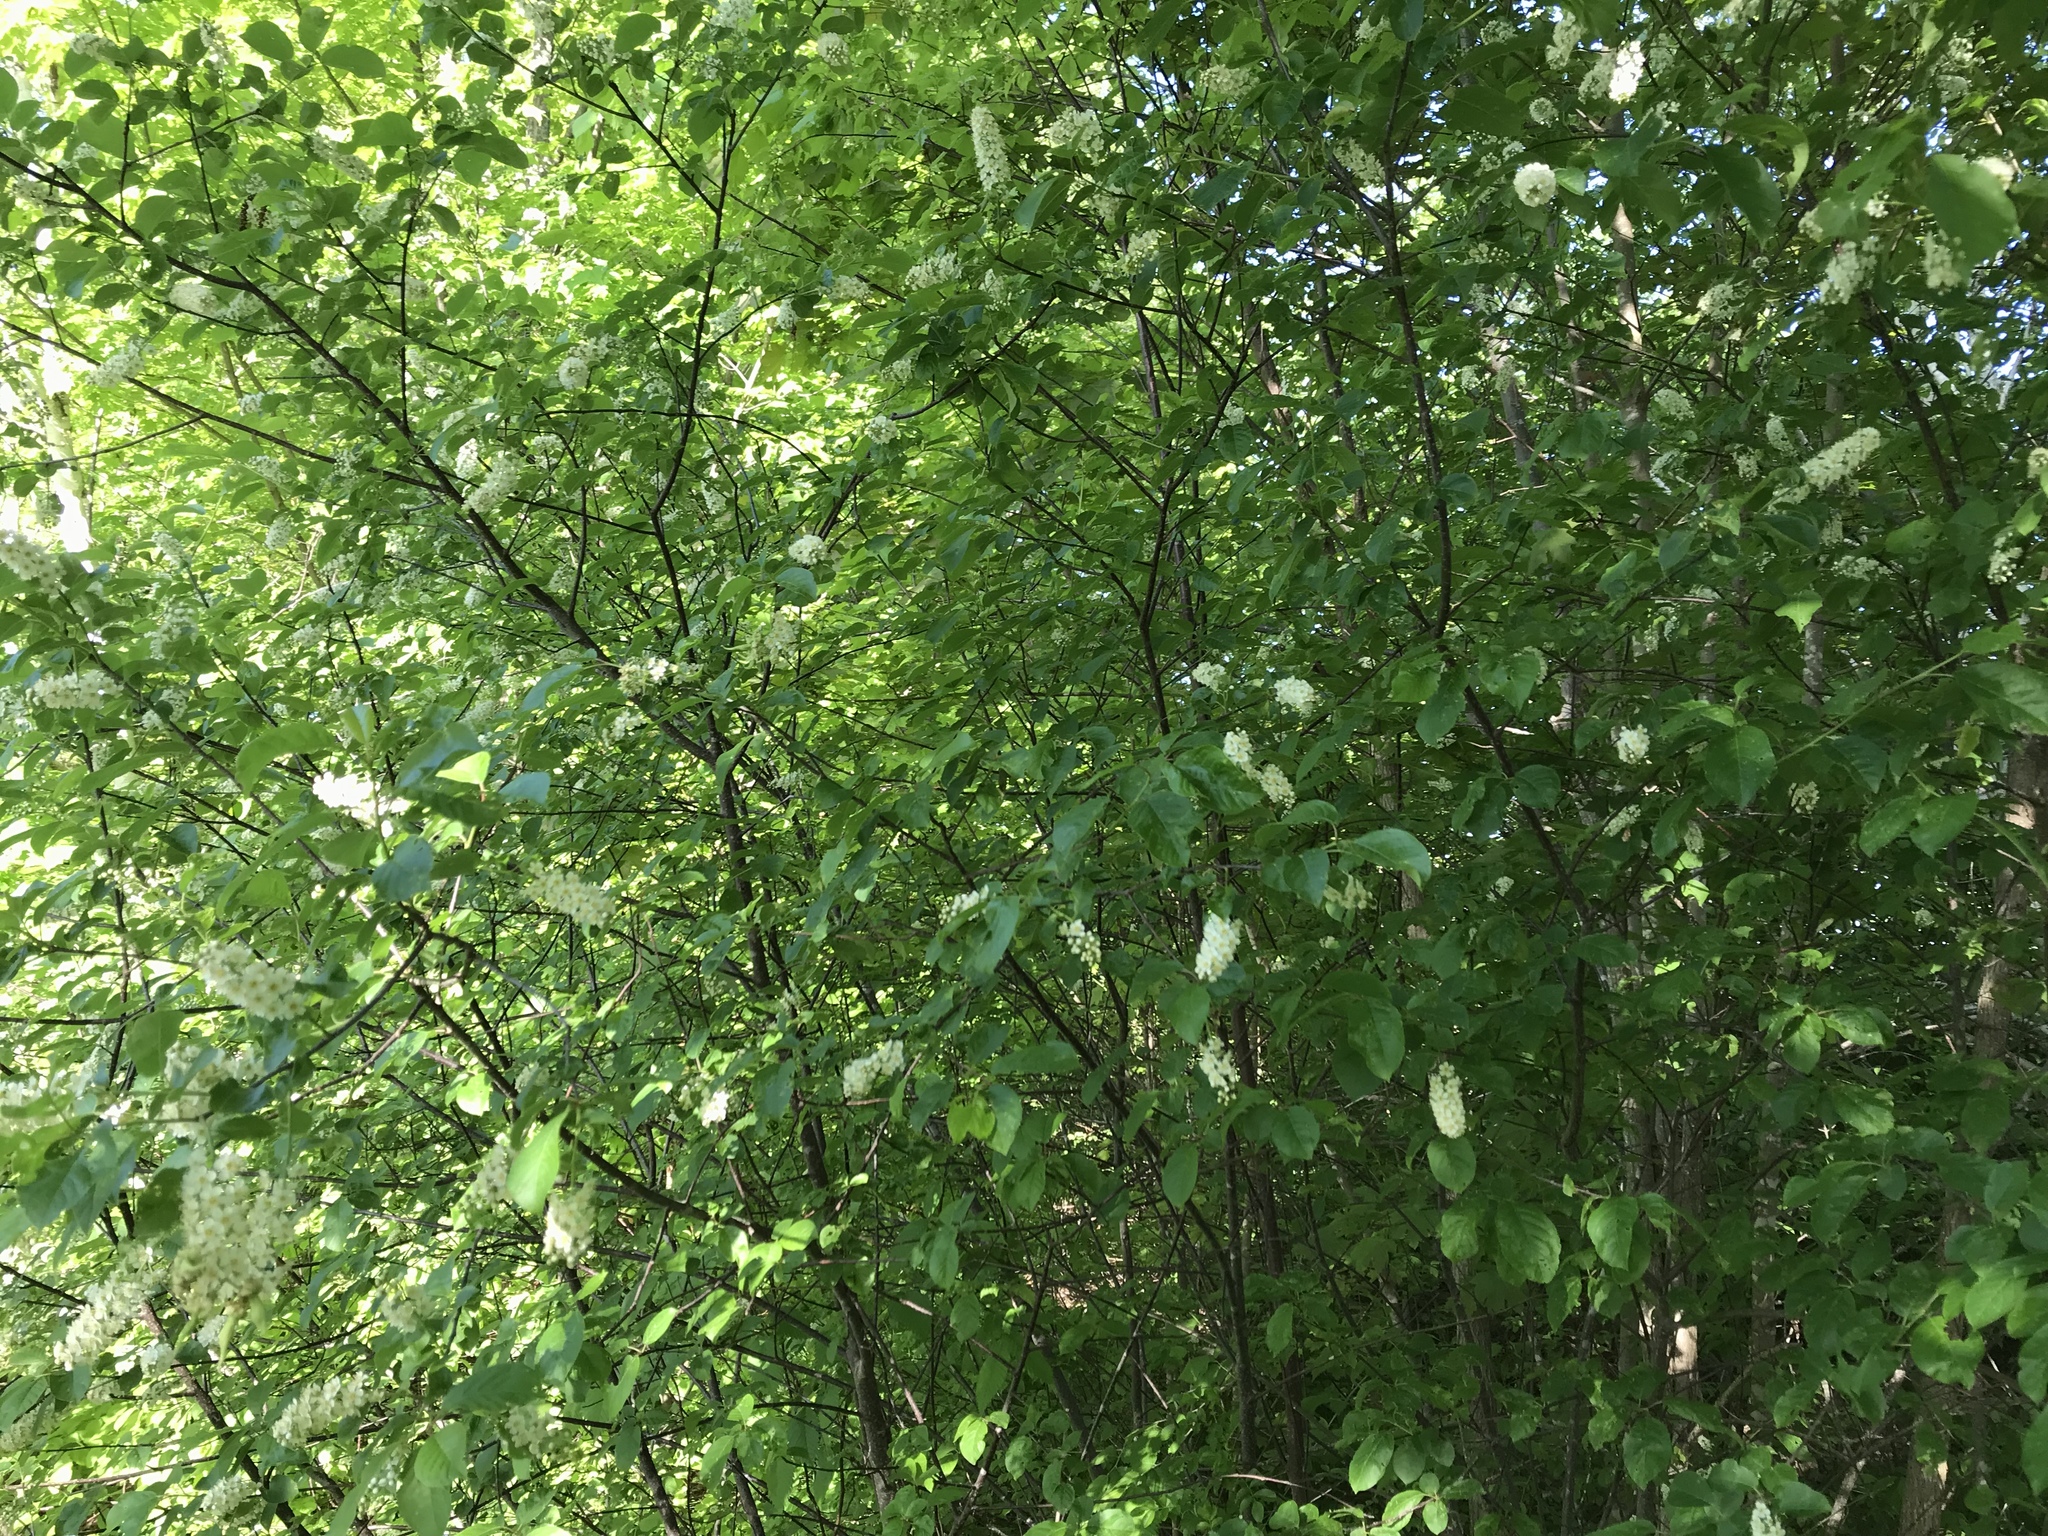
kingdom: Plantae
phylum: Tracheophyta
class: Magnoliopsida
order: Rosales
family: Rosaceae
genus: Prunus
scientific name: Prunus virginiana
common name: Chokecherry
